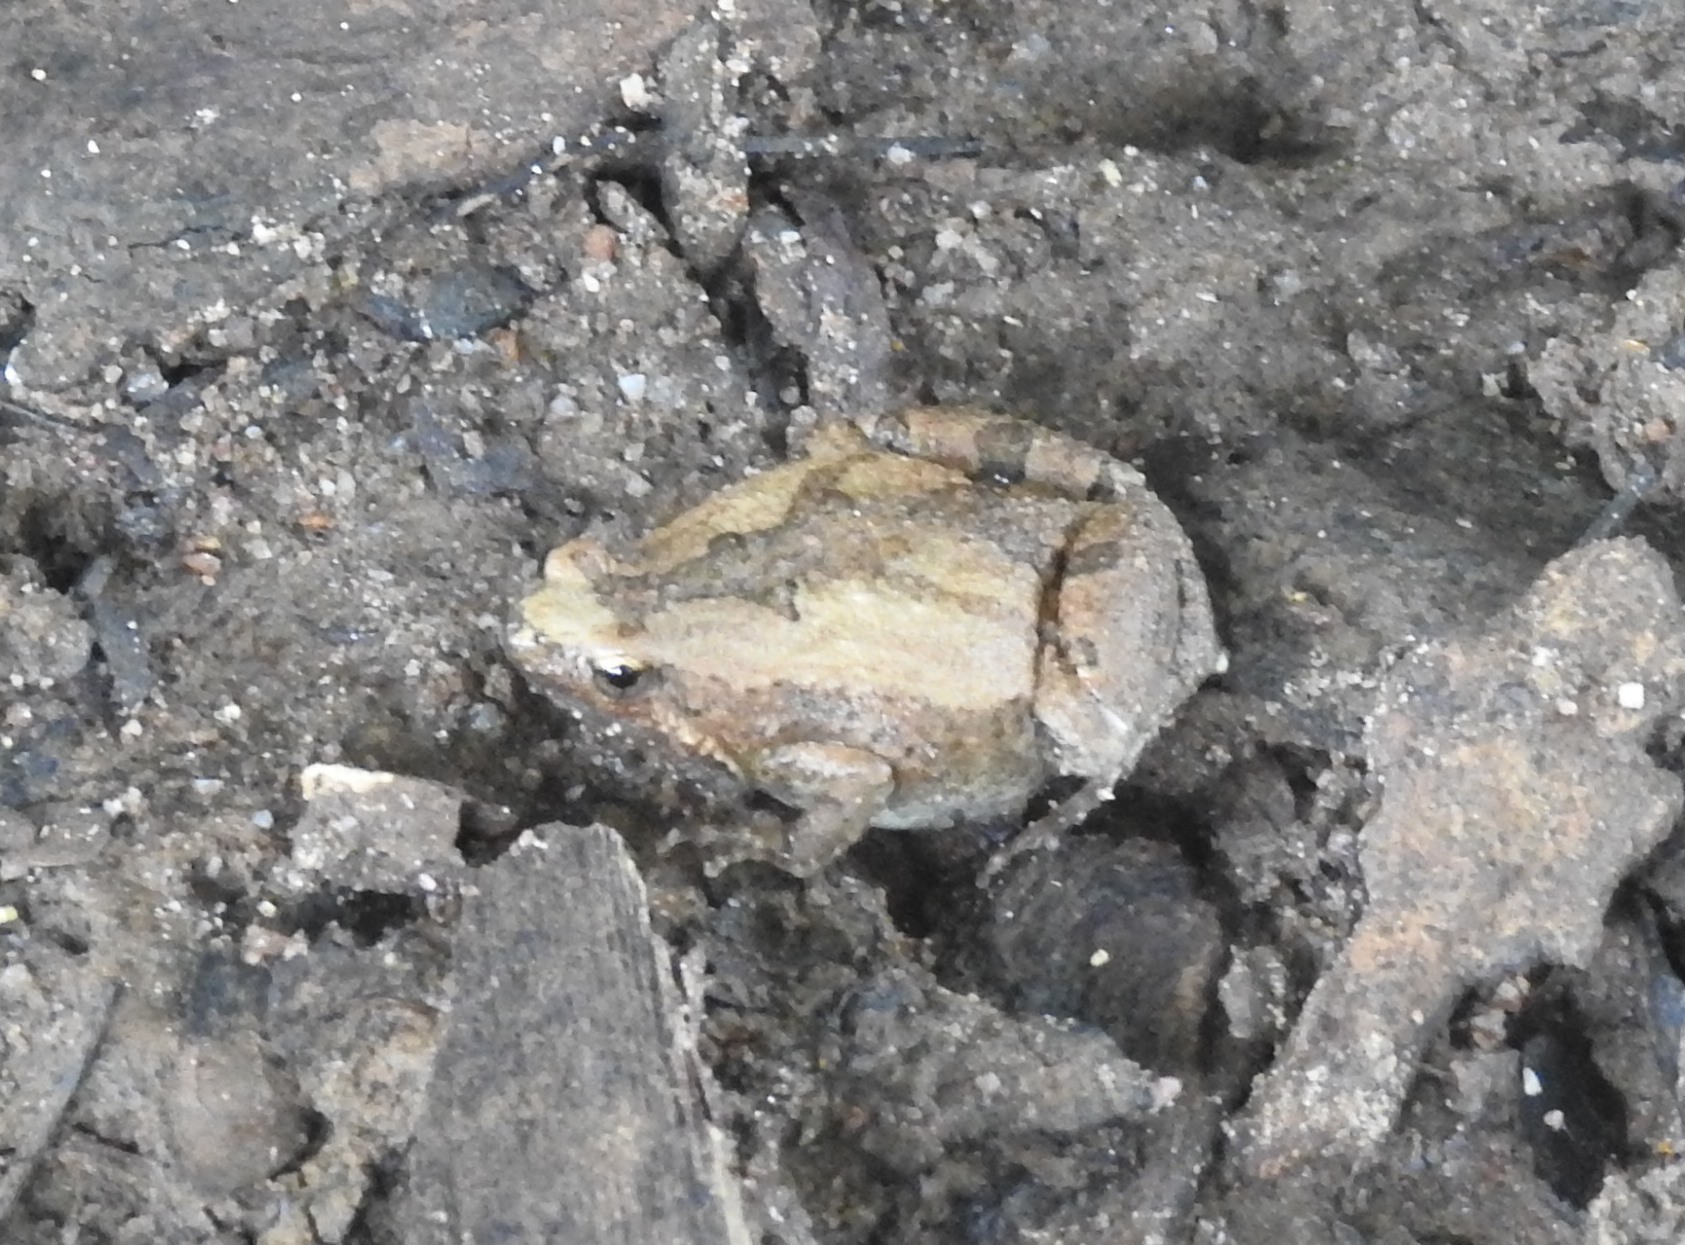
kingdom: Animalia
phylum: Chordata
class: Amphibia
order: Anura
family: Microhylidae
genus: Microhyla
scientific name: Microhyla ornata
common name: Ant frog
